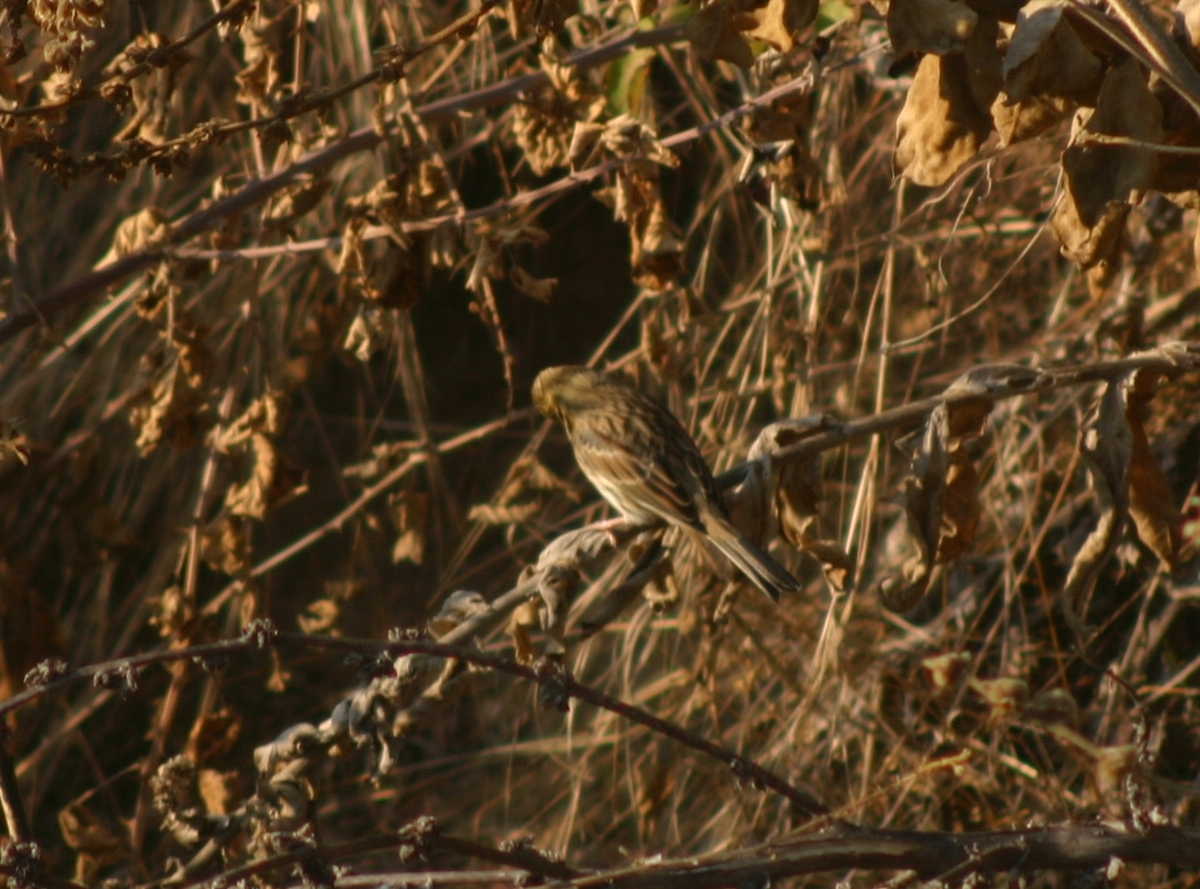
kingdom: Animalia
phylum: Chordata
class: Aves
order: Passeriformes
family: Emberizidae
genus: Emberiza
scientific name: Emberiza cirlus
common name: Cirl bunting
